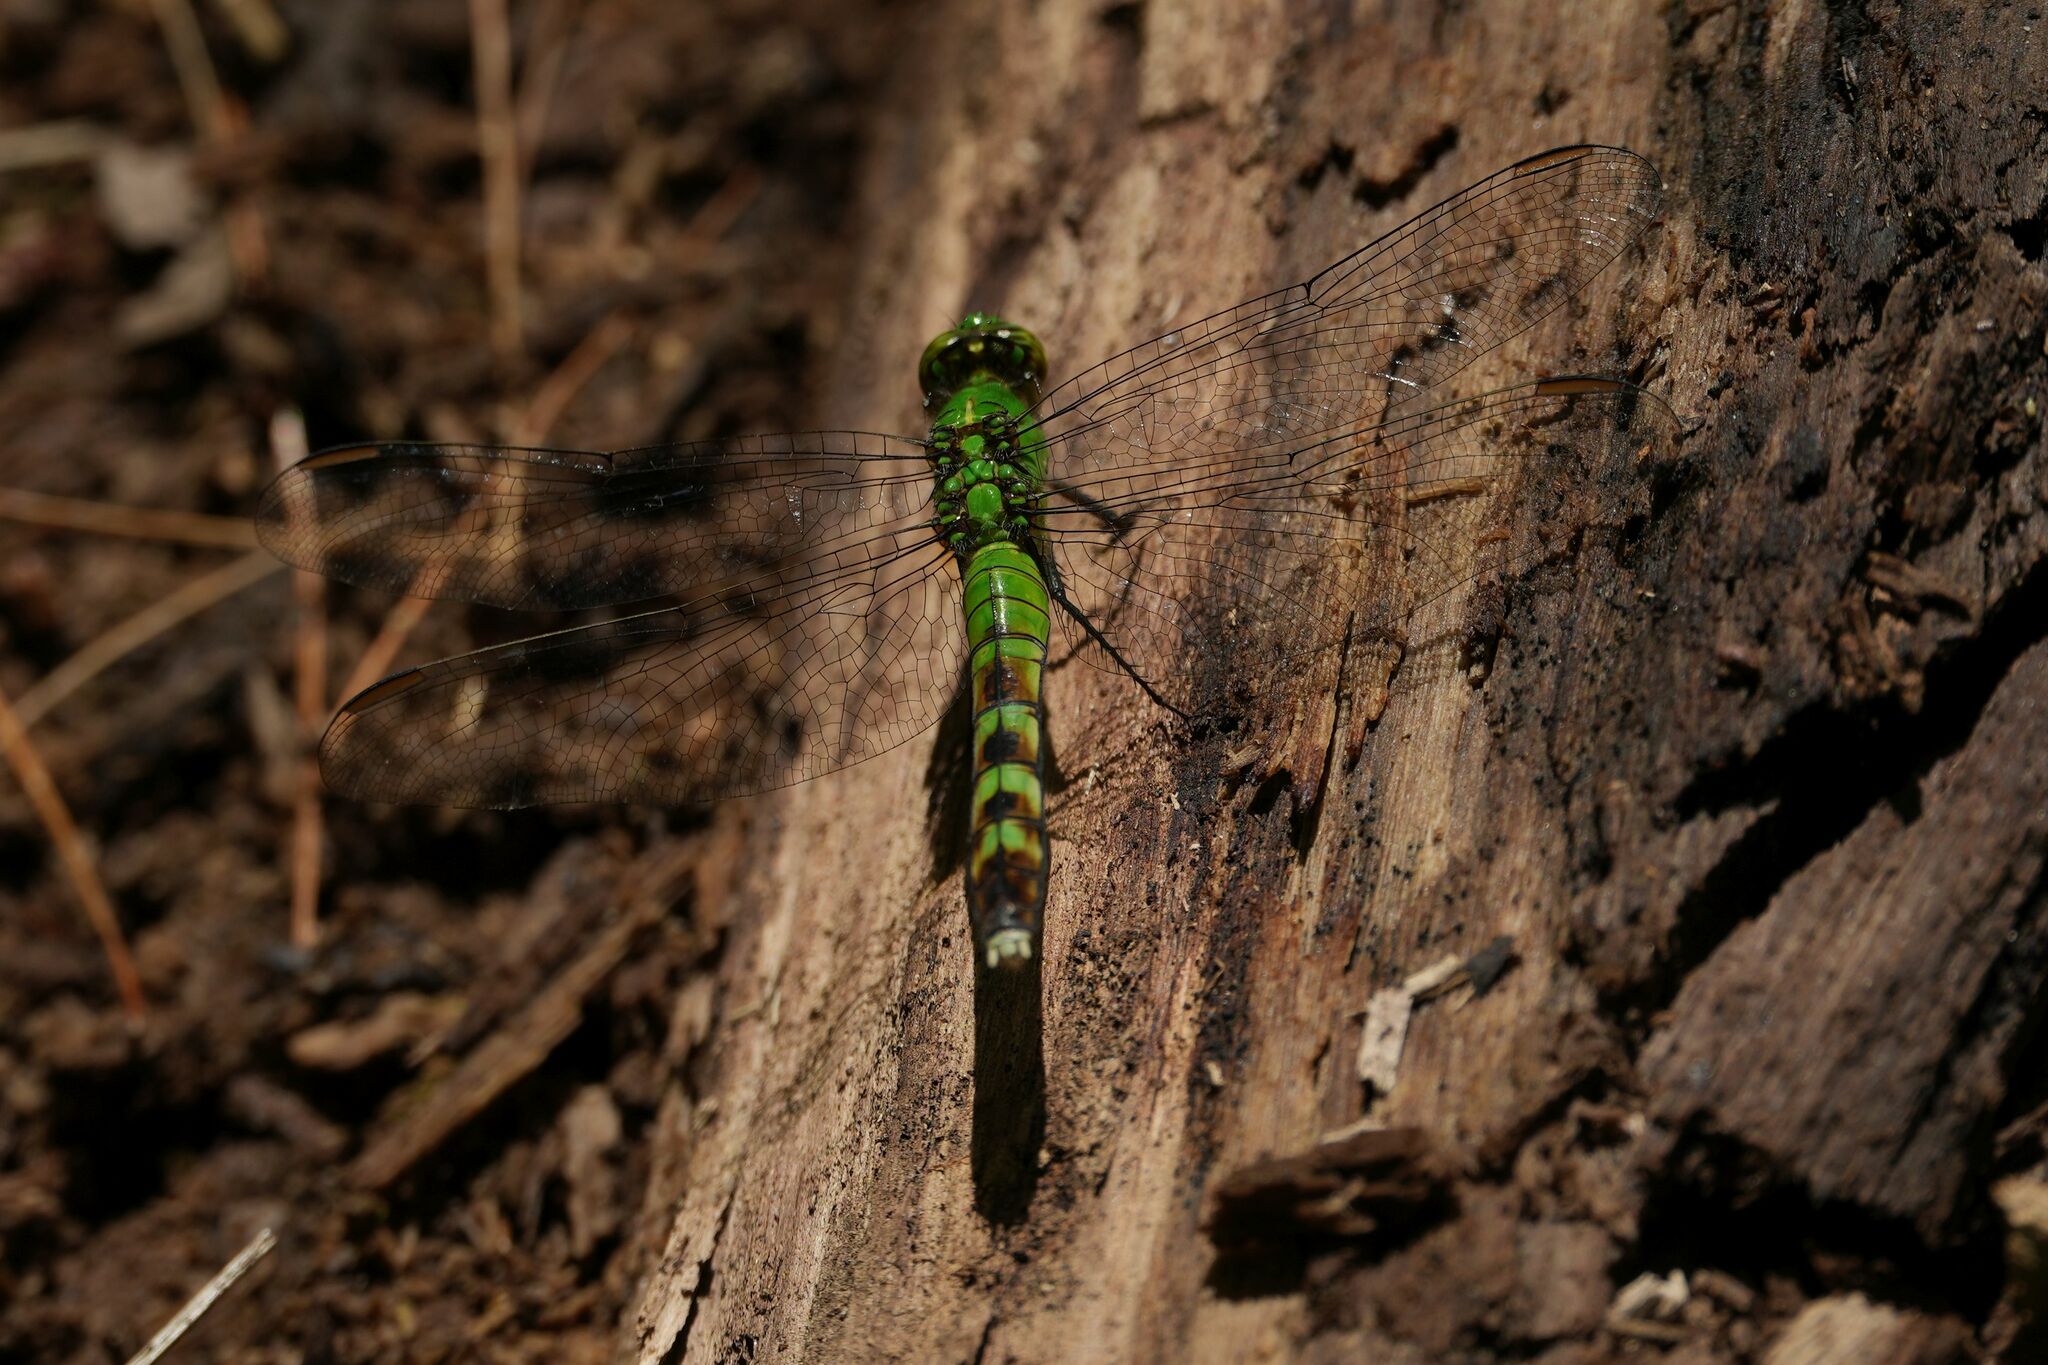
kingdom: Animalia
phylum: Arthropoda
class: Insecta
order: Odonata
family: Libellulidae
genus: Erythemis
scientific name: Erythemis simplicicollis
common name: Eastern pondhawk
